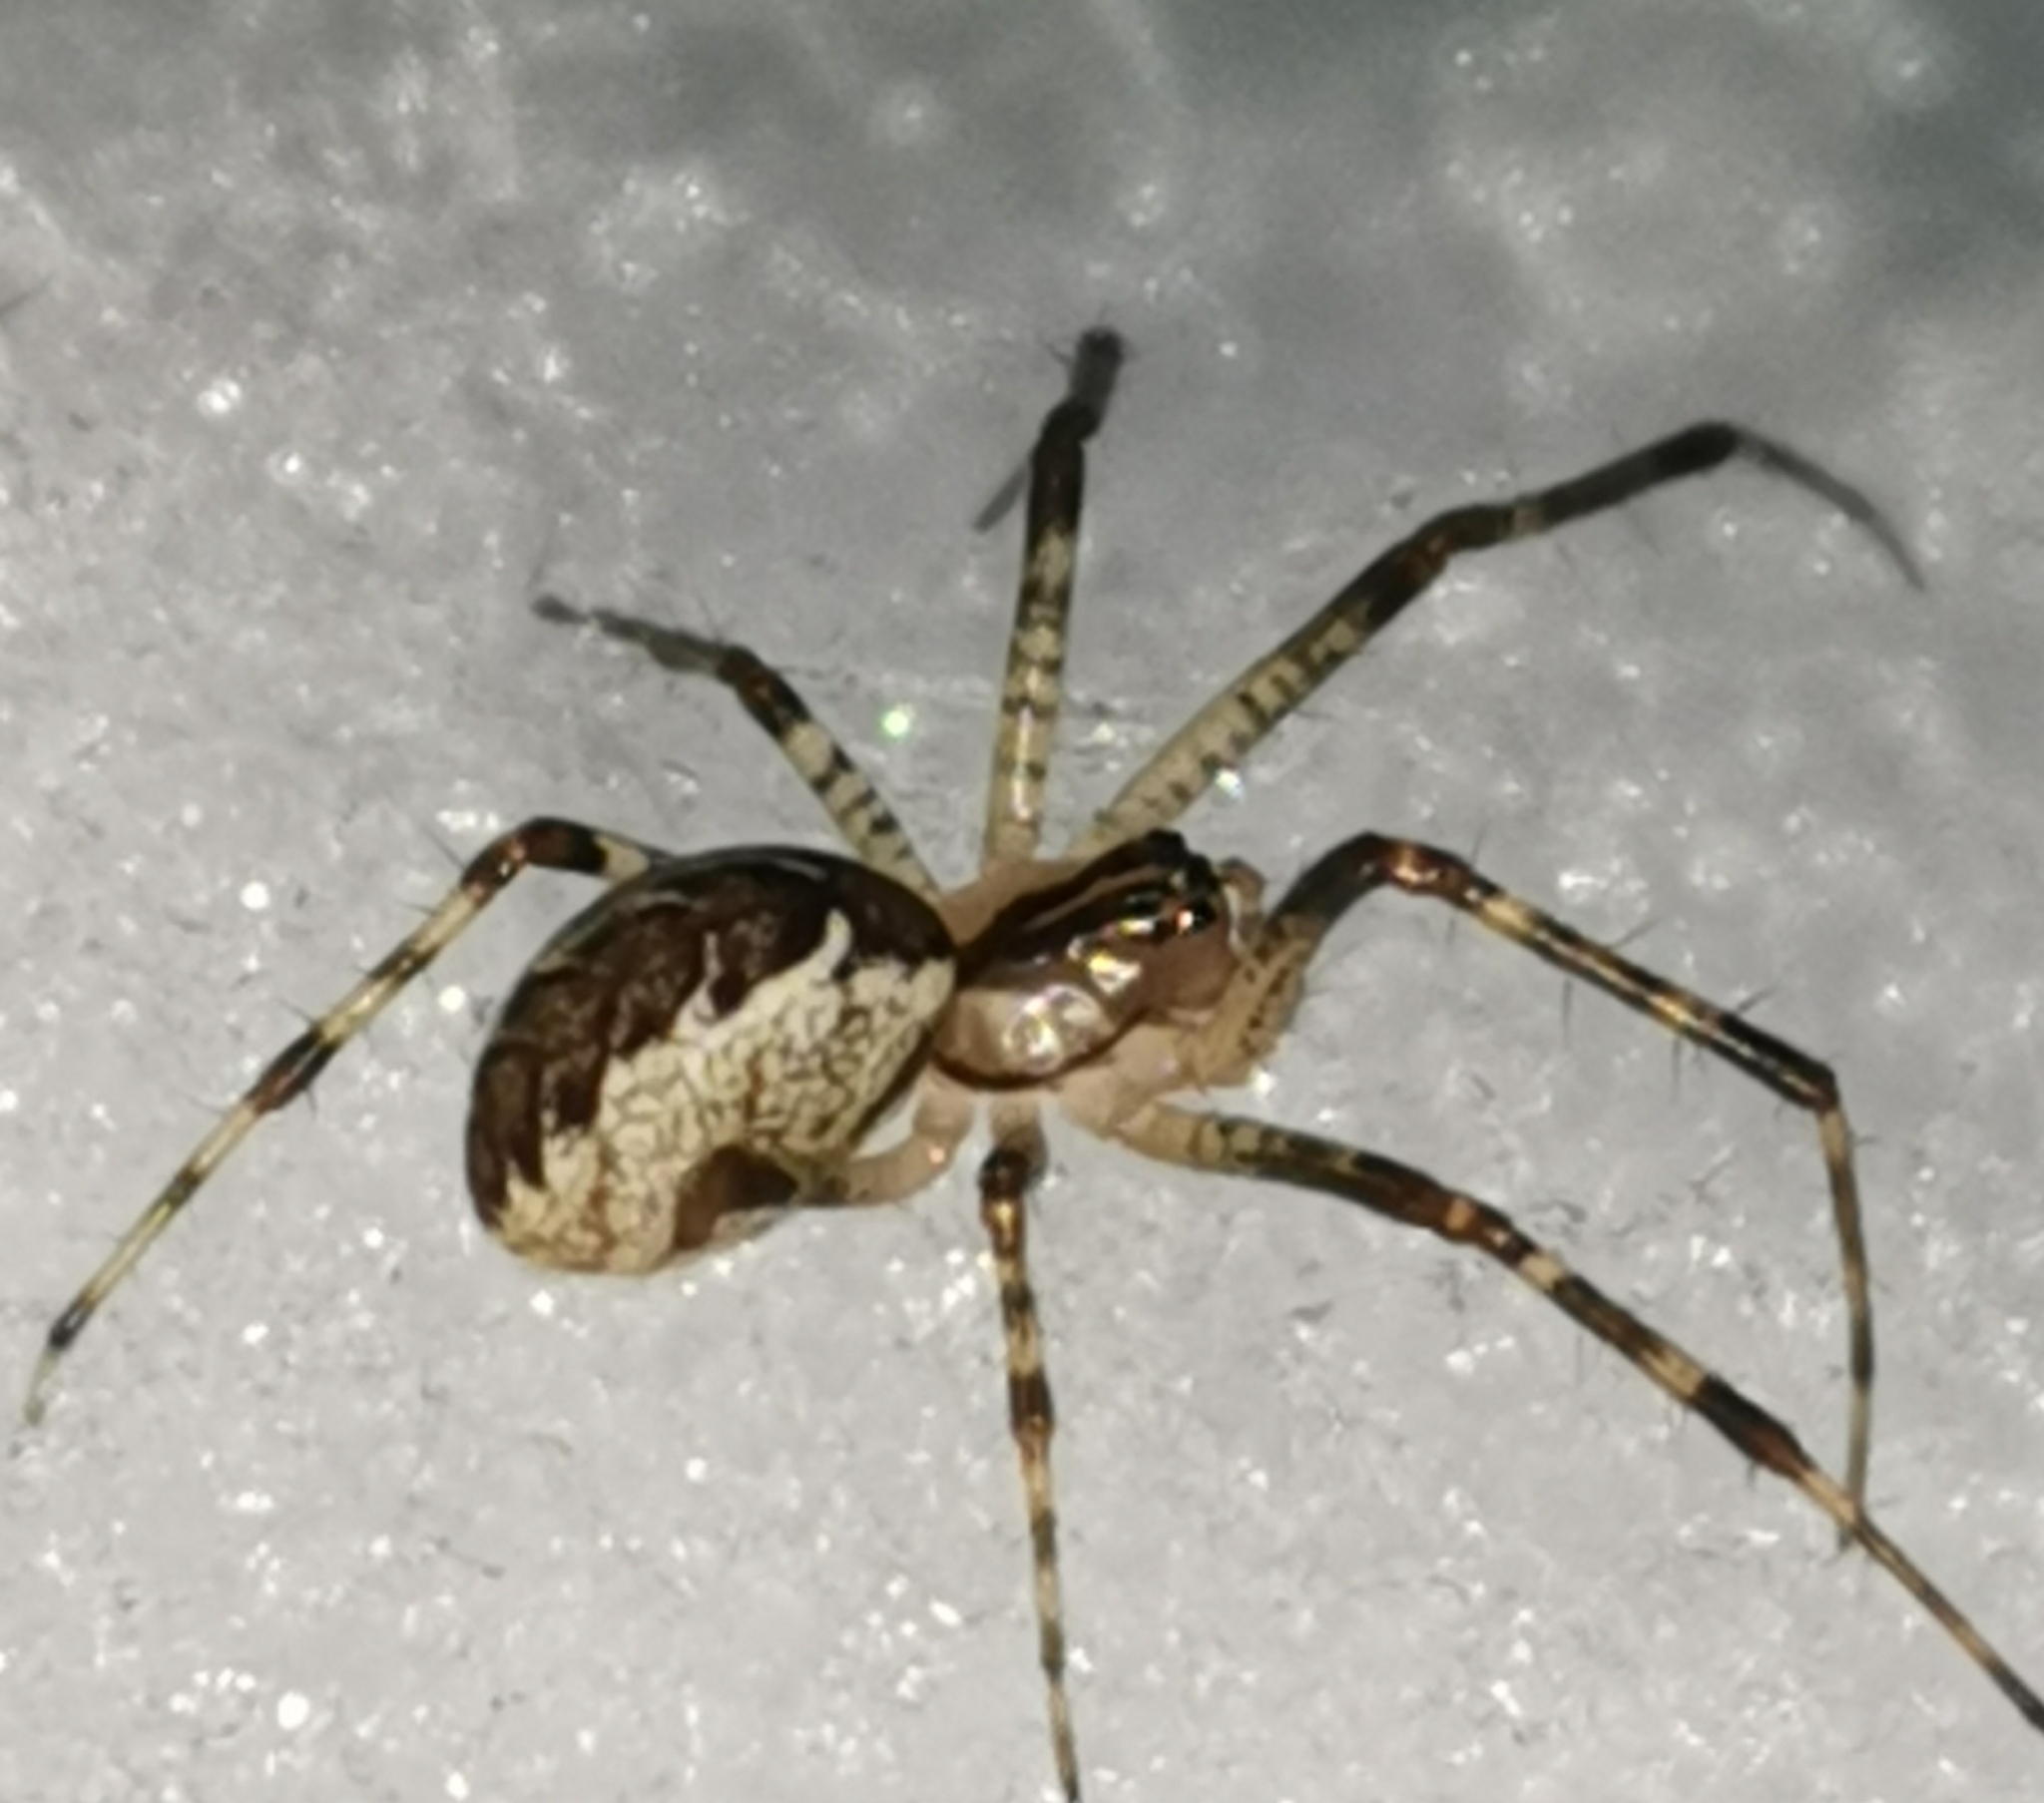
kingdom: Animalia
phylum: Arthropoda
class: Arachnida
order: Araneae
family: Linyphiidae
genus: Pityohyphantes
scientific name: Pityohyphantes phrygianus
